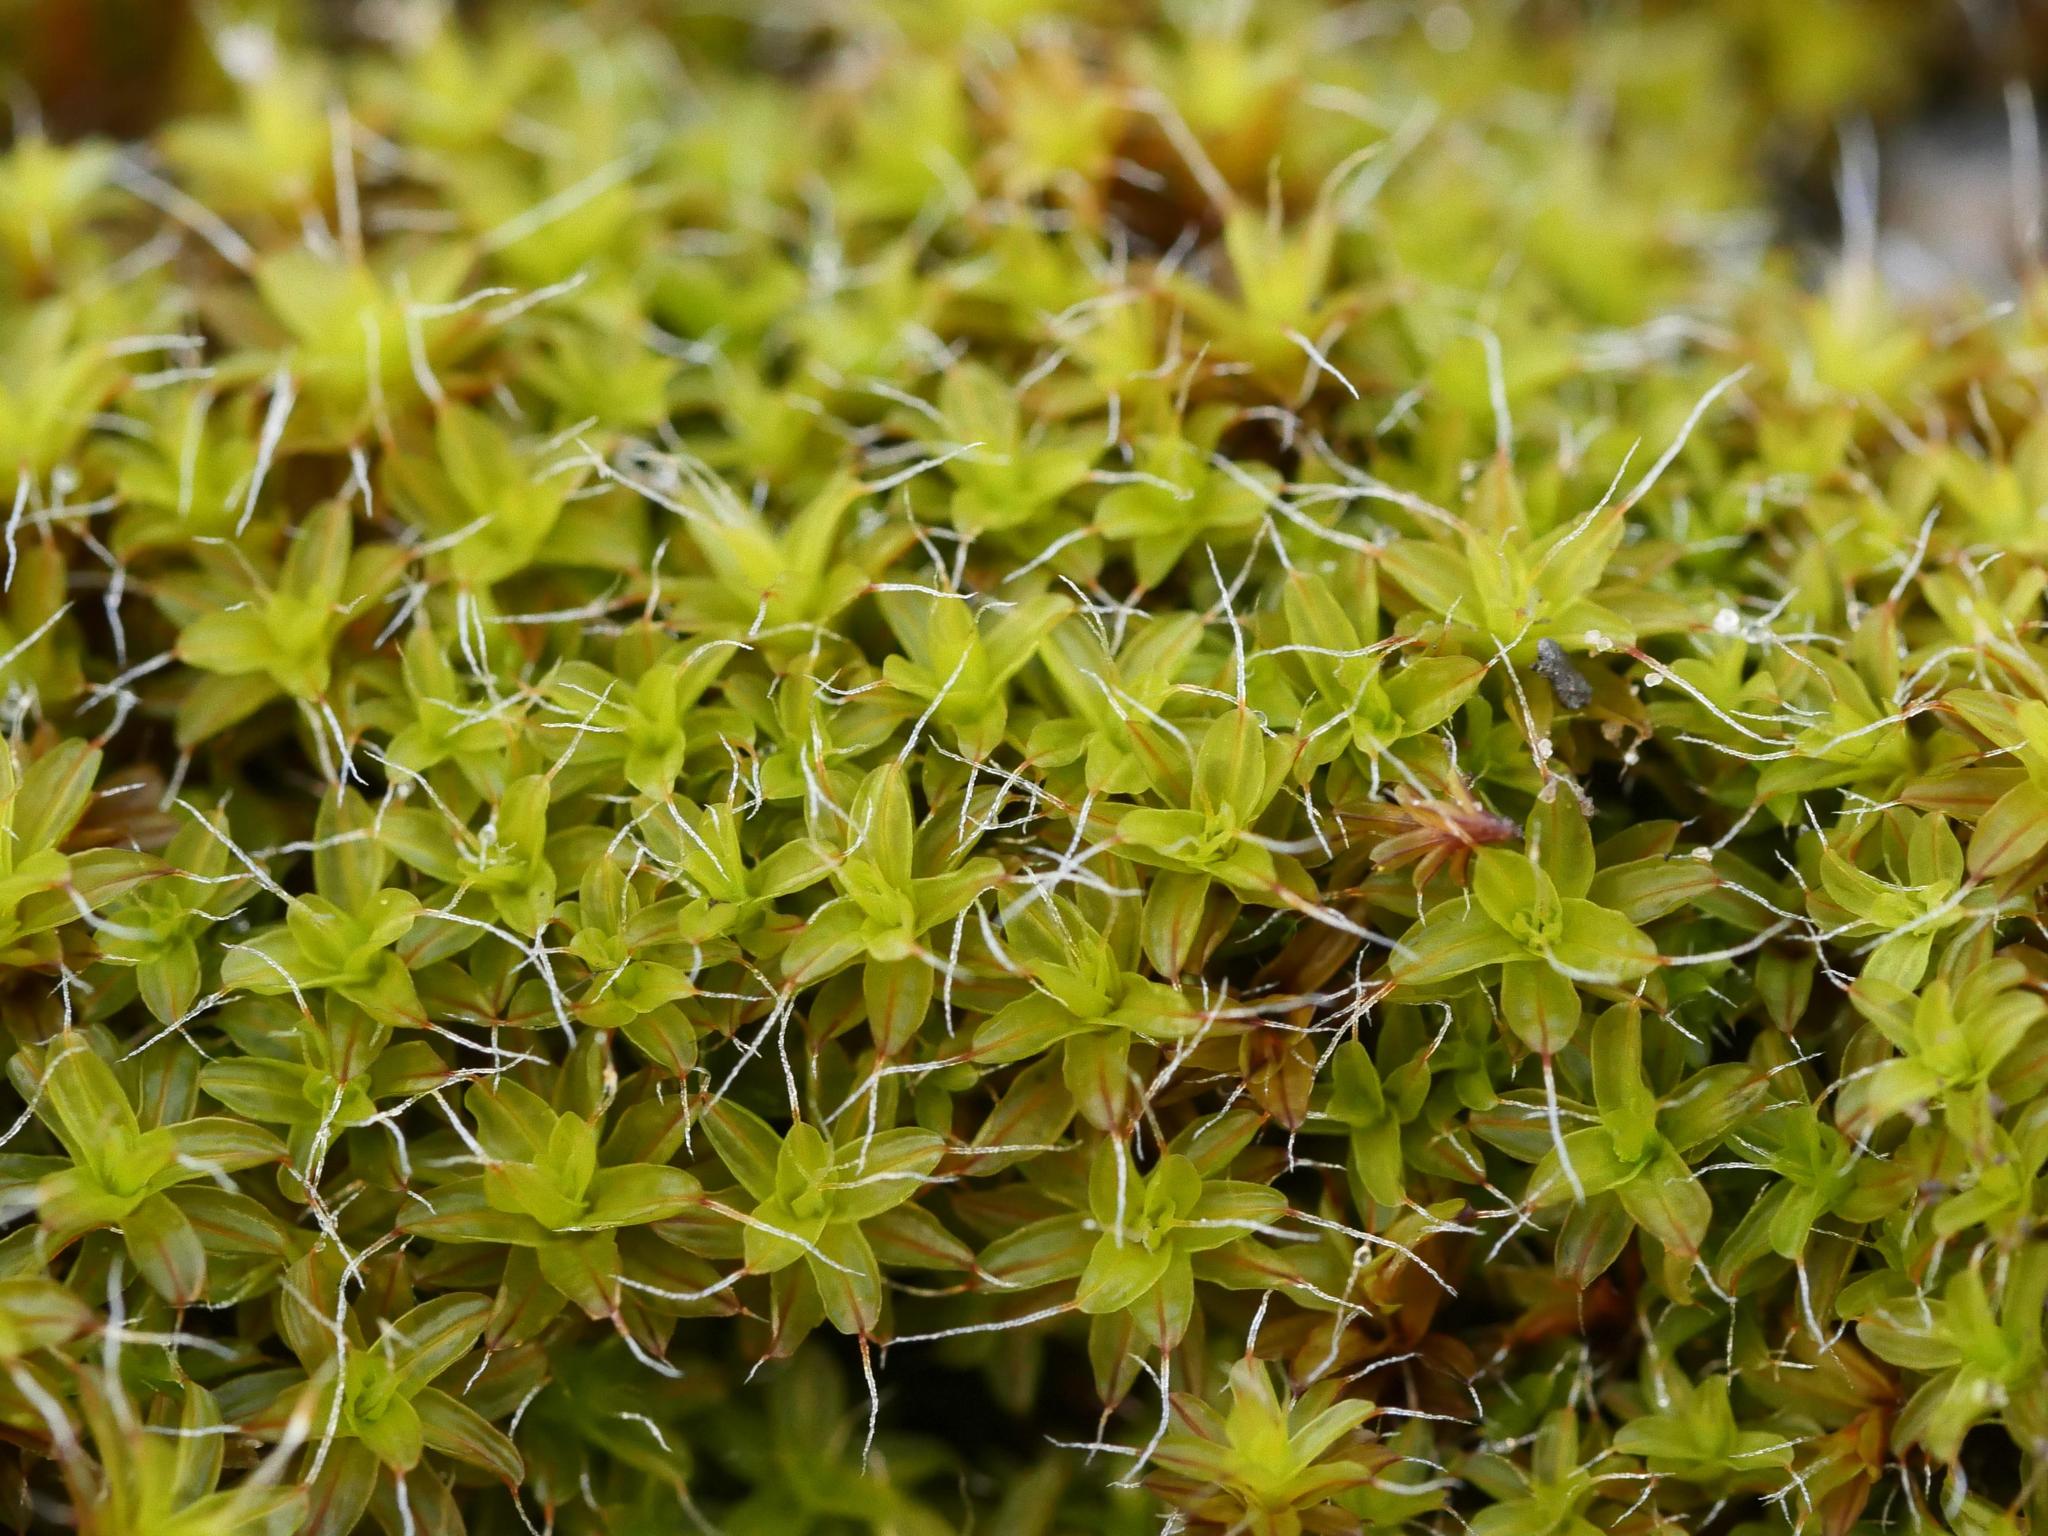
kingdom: Plantae
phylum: Bryophyta
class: Bryopsida
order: Pottiales
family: Pottiaceae
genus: Syntrichia
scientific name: Syntrichia ruralis
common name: Sidewalk screw moss
